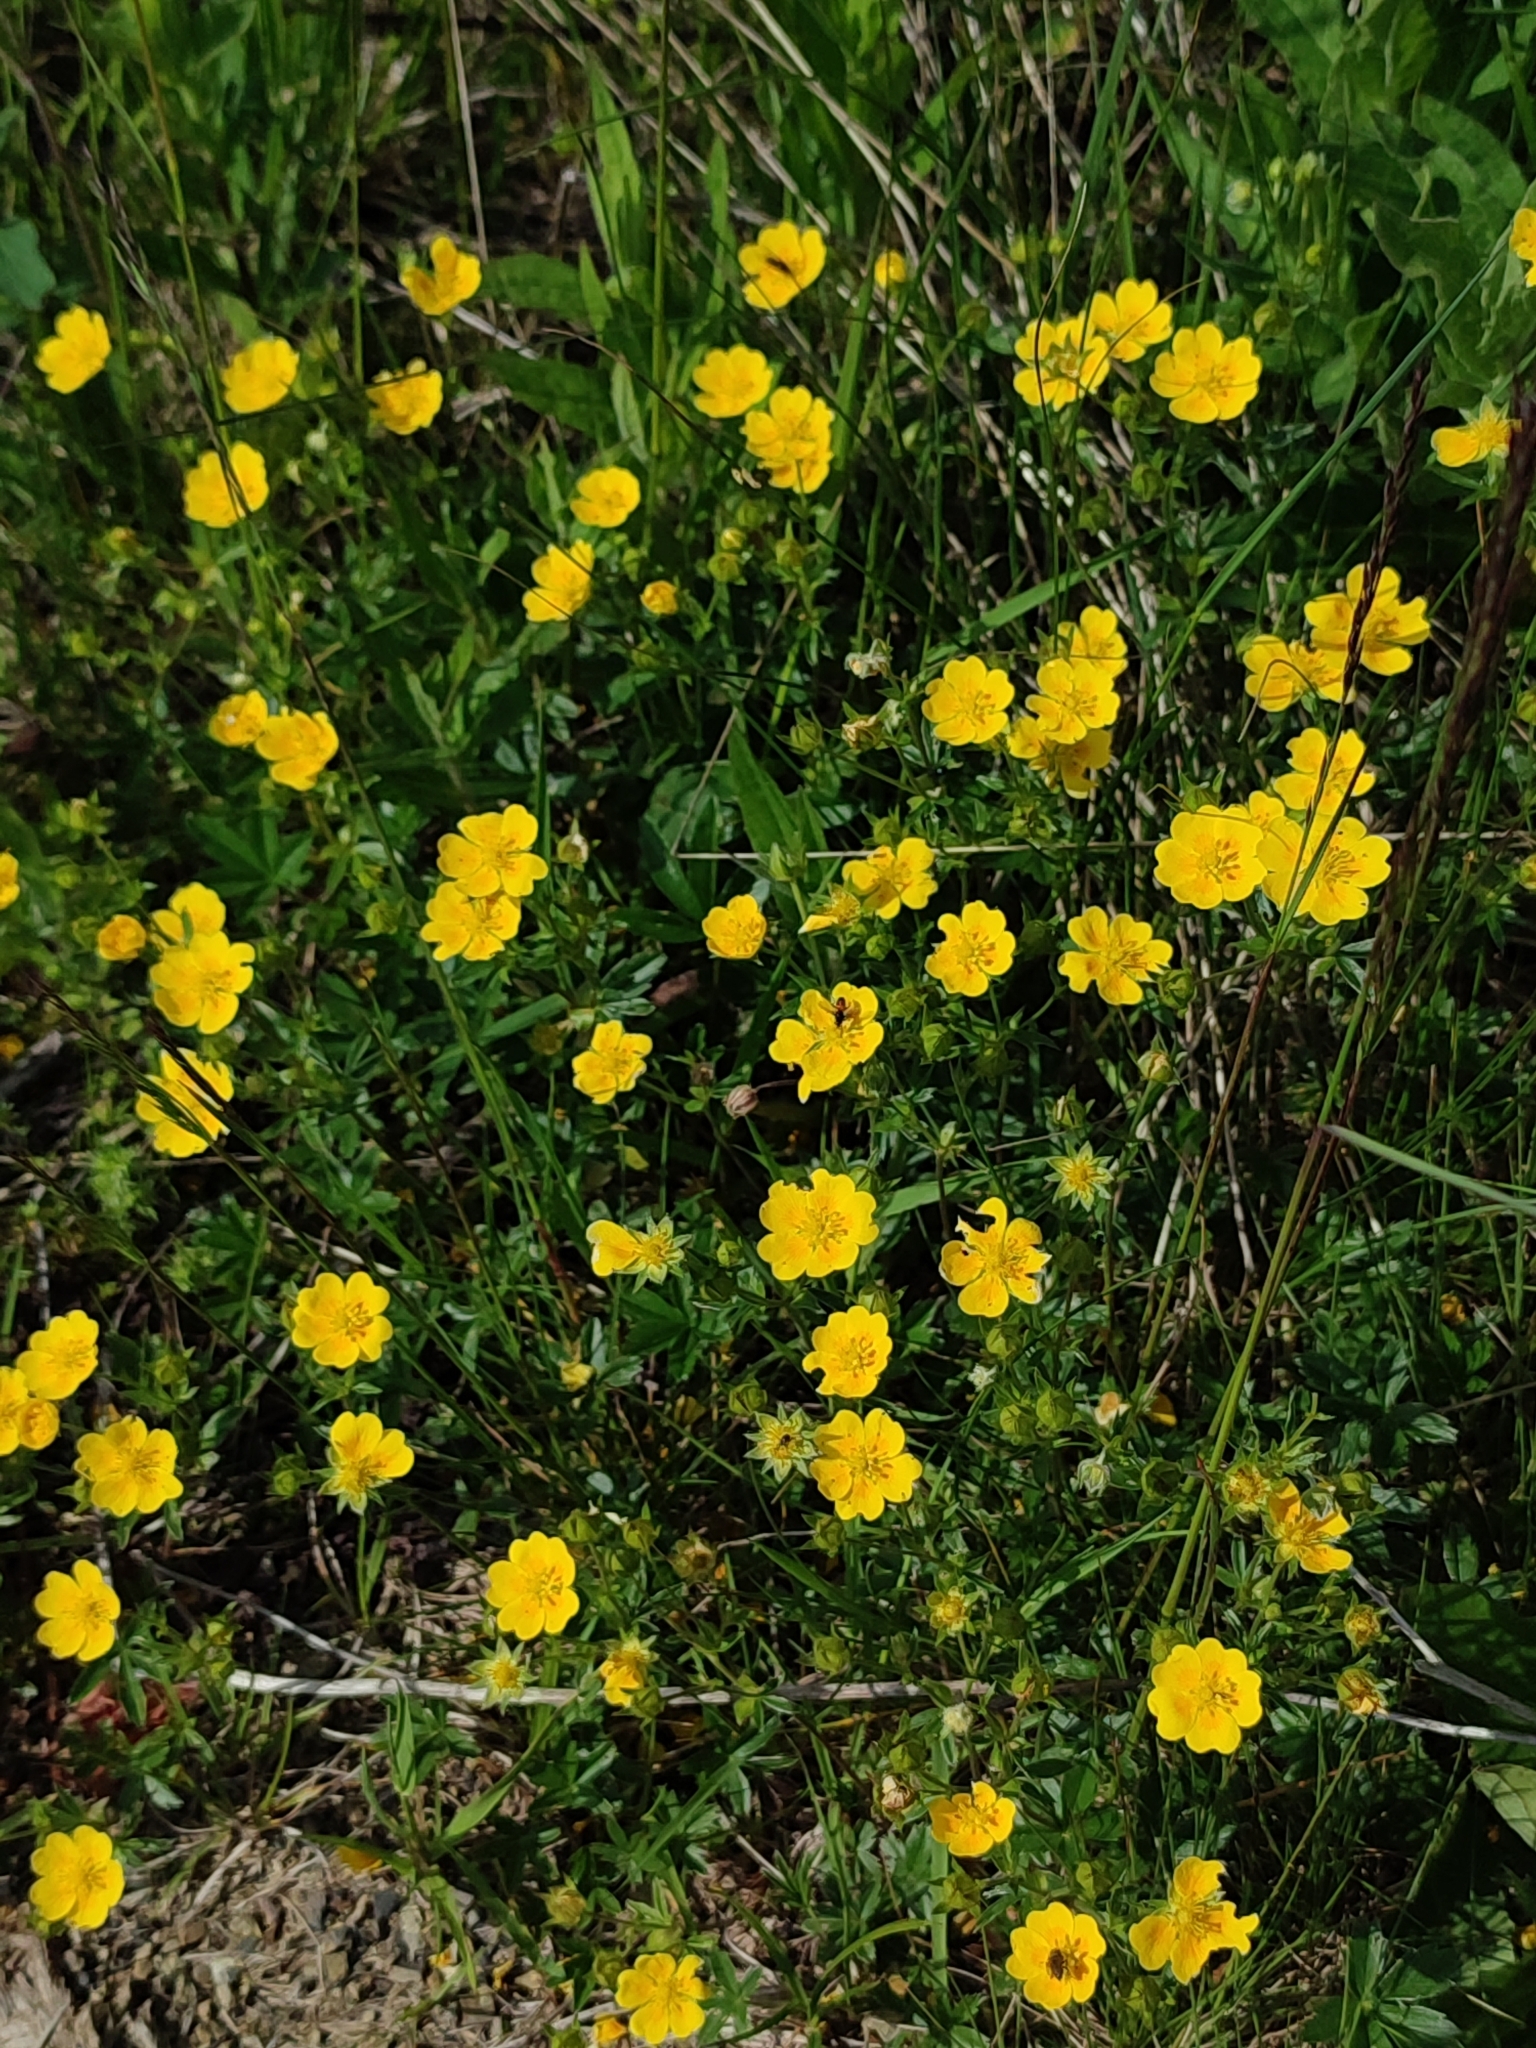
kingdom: Plantae
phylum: Tracheophyta
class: Magnoliopsida
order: Rosales
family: Rosaceae
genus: Potentilla
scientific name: Potentilla aurea
